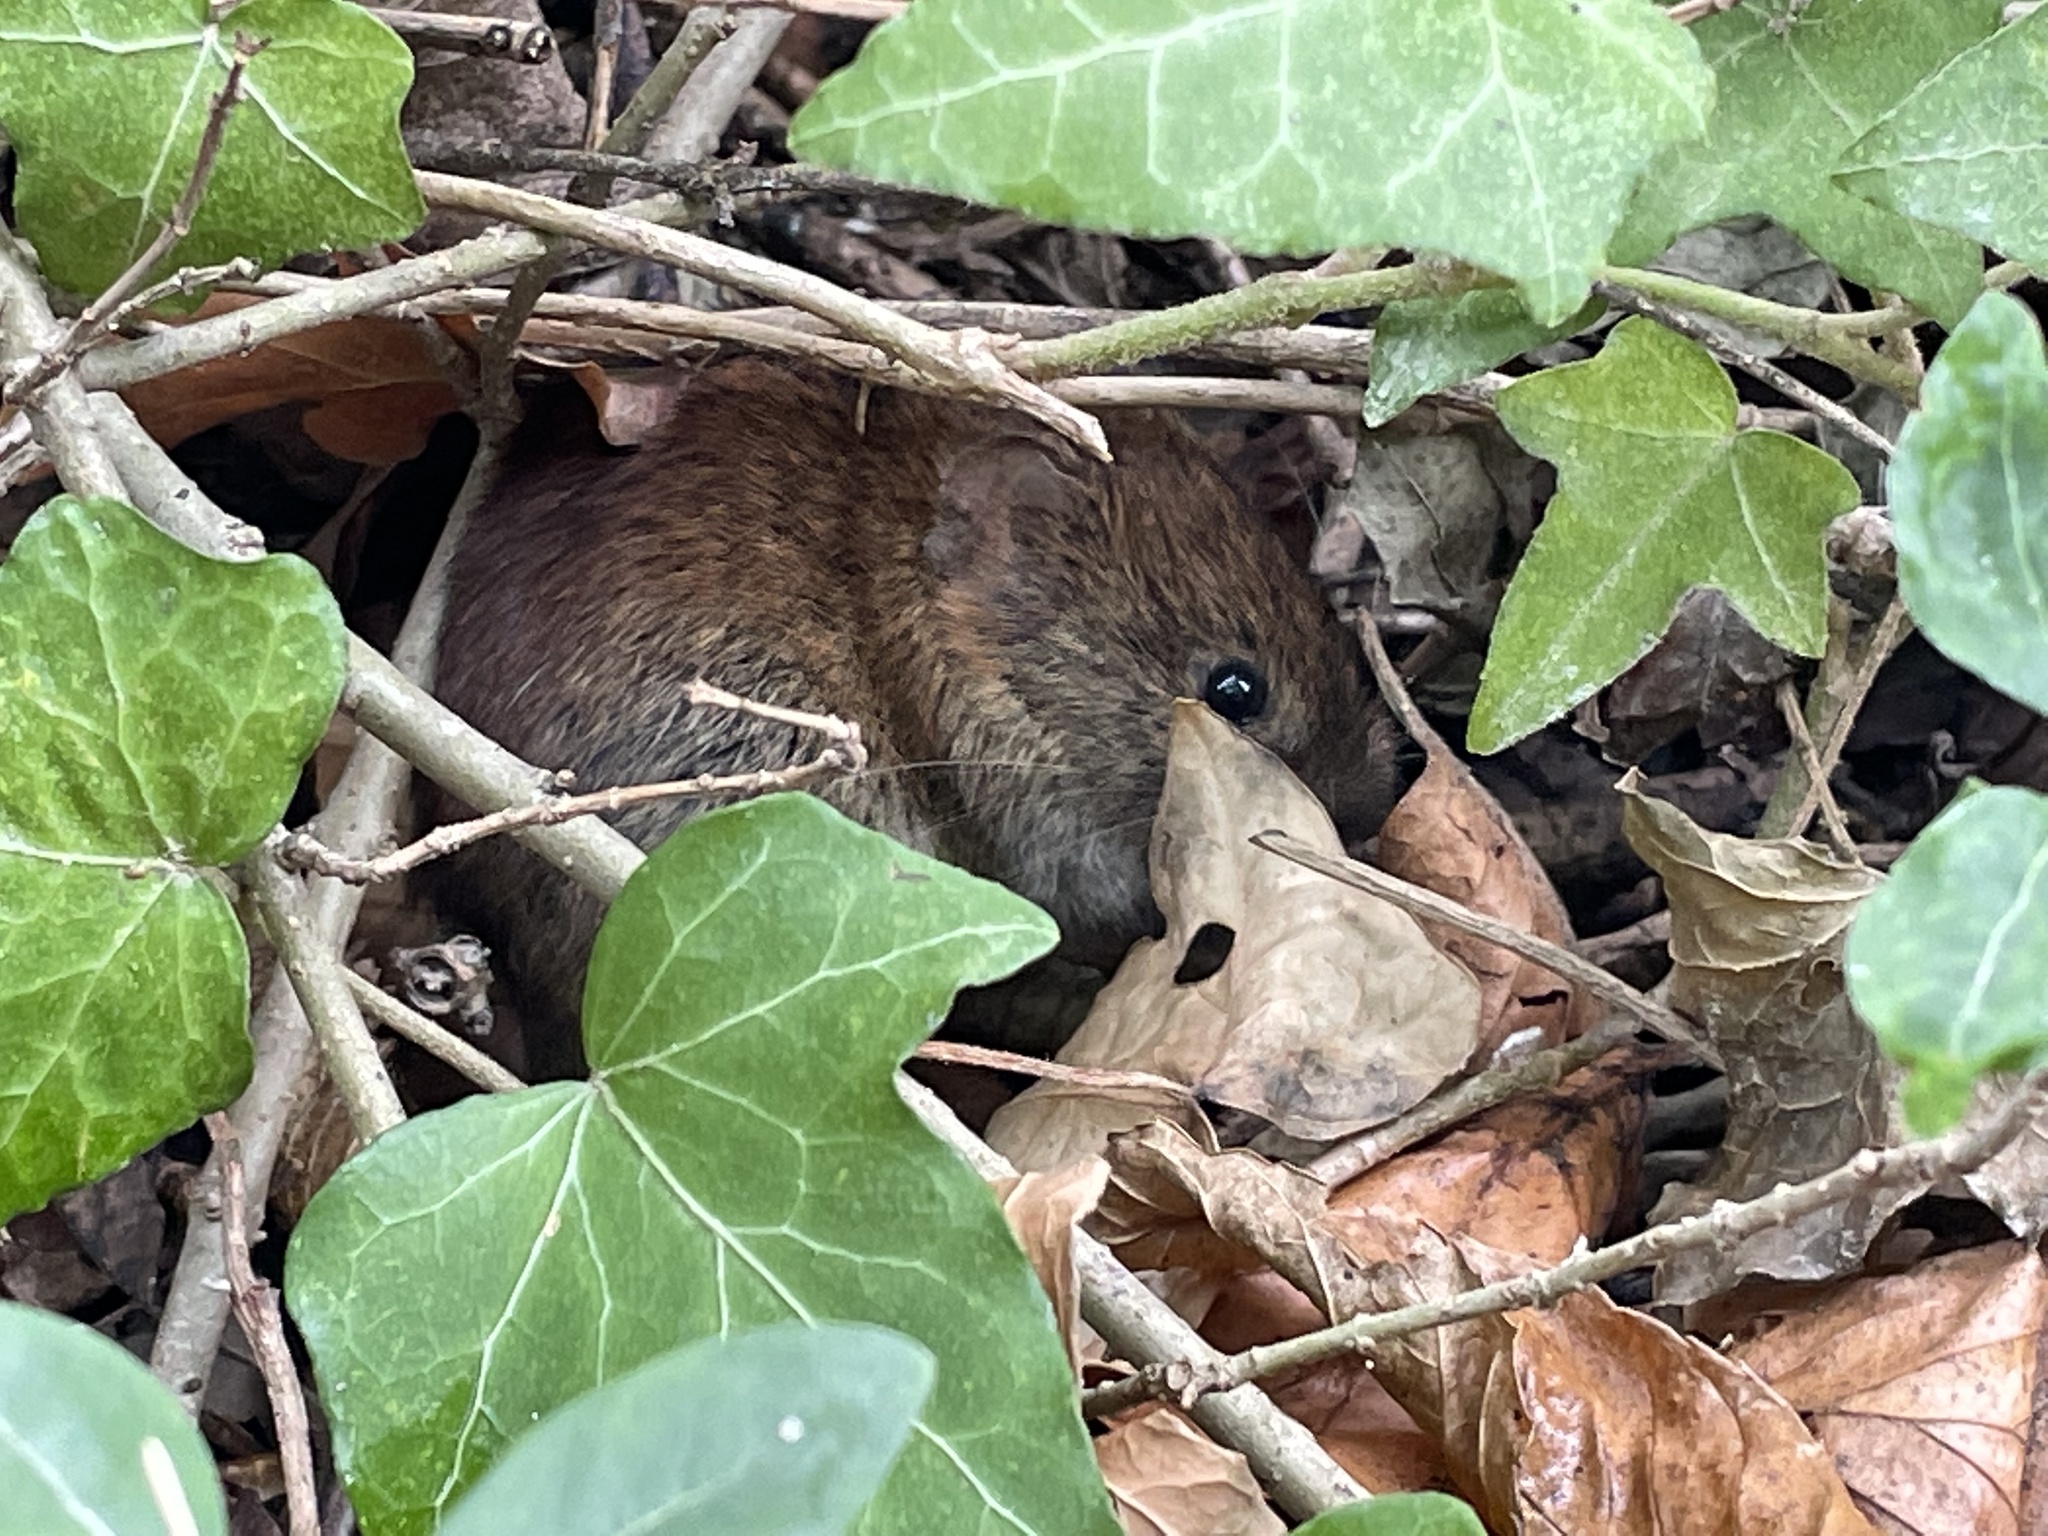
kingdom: Animalia
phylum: Chordata
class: Mammalia
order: Rodentia
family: Cricetidae
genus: Myodes
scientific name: Myodes glareolus
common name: Bank vole
